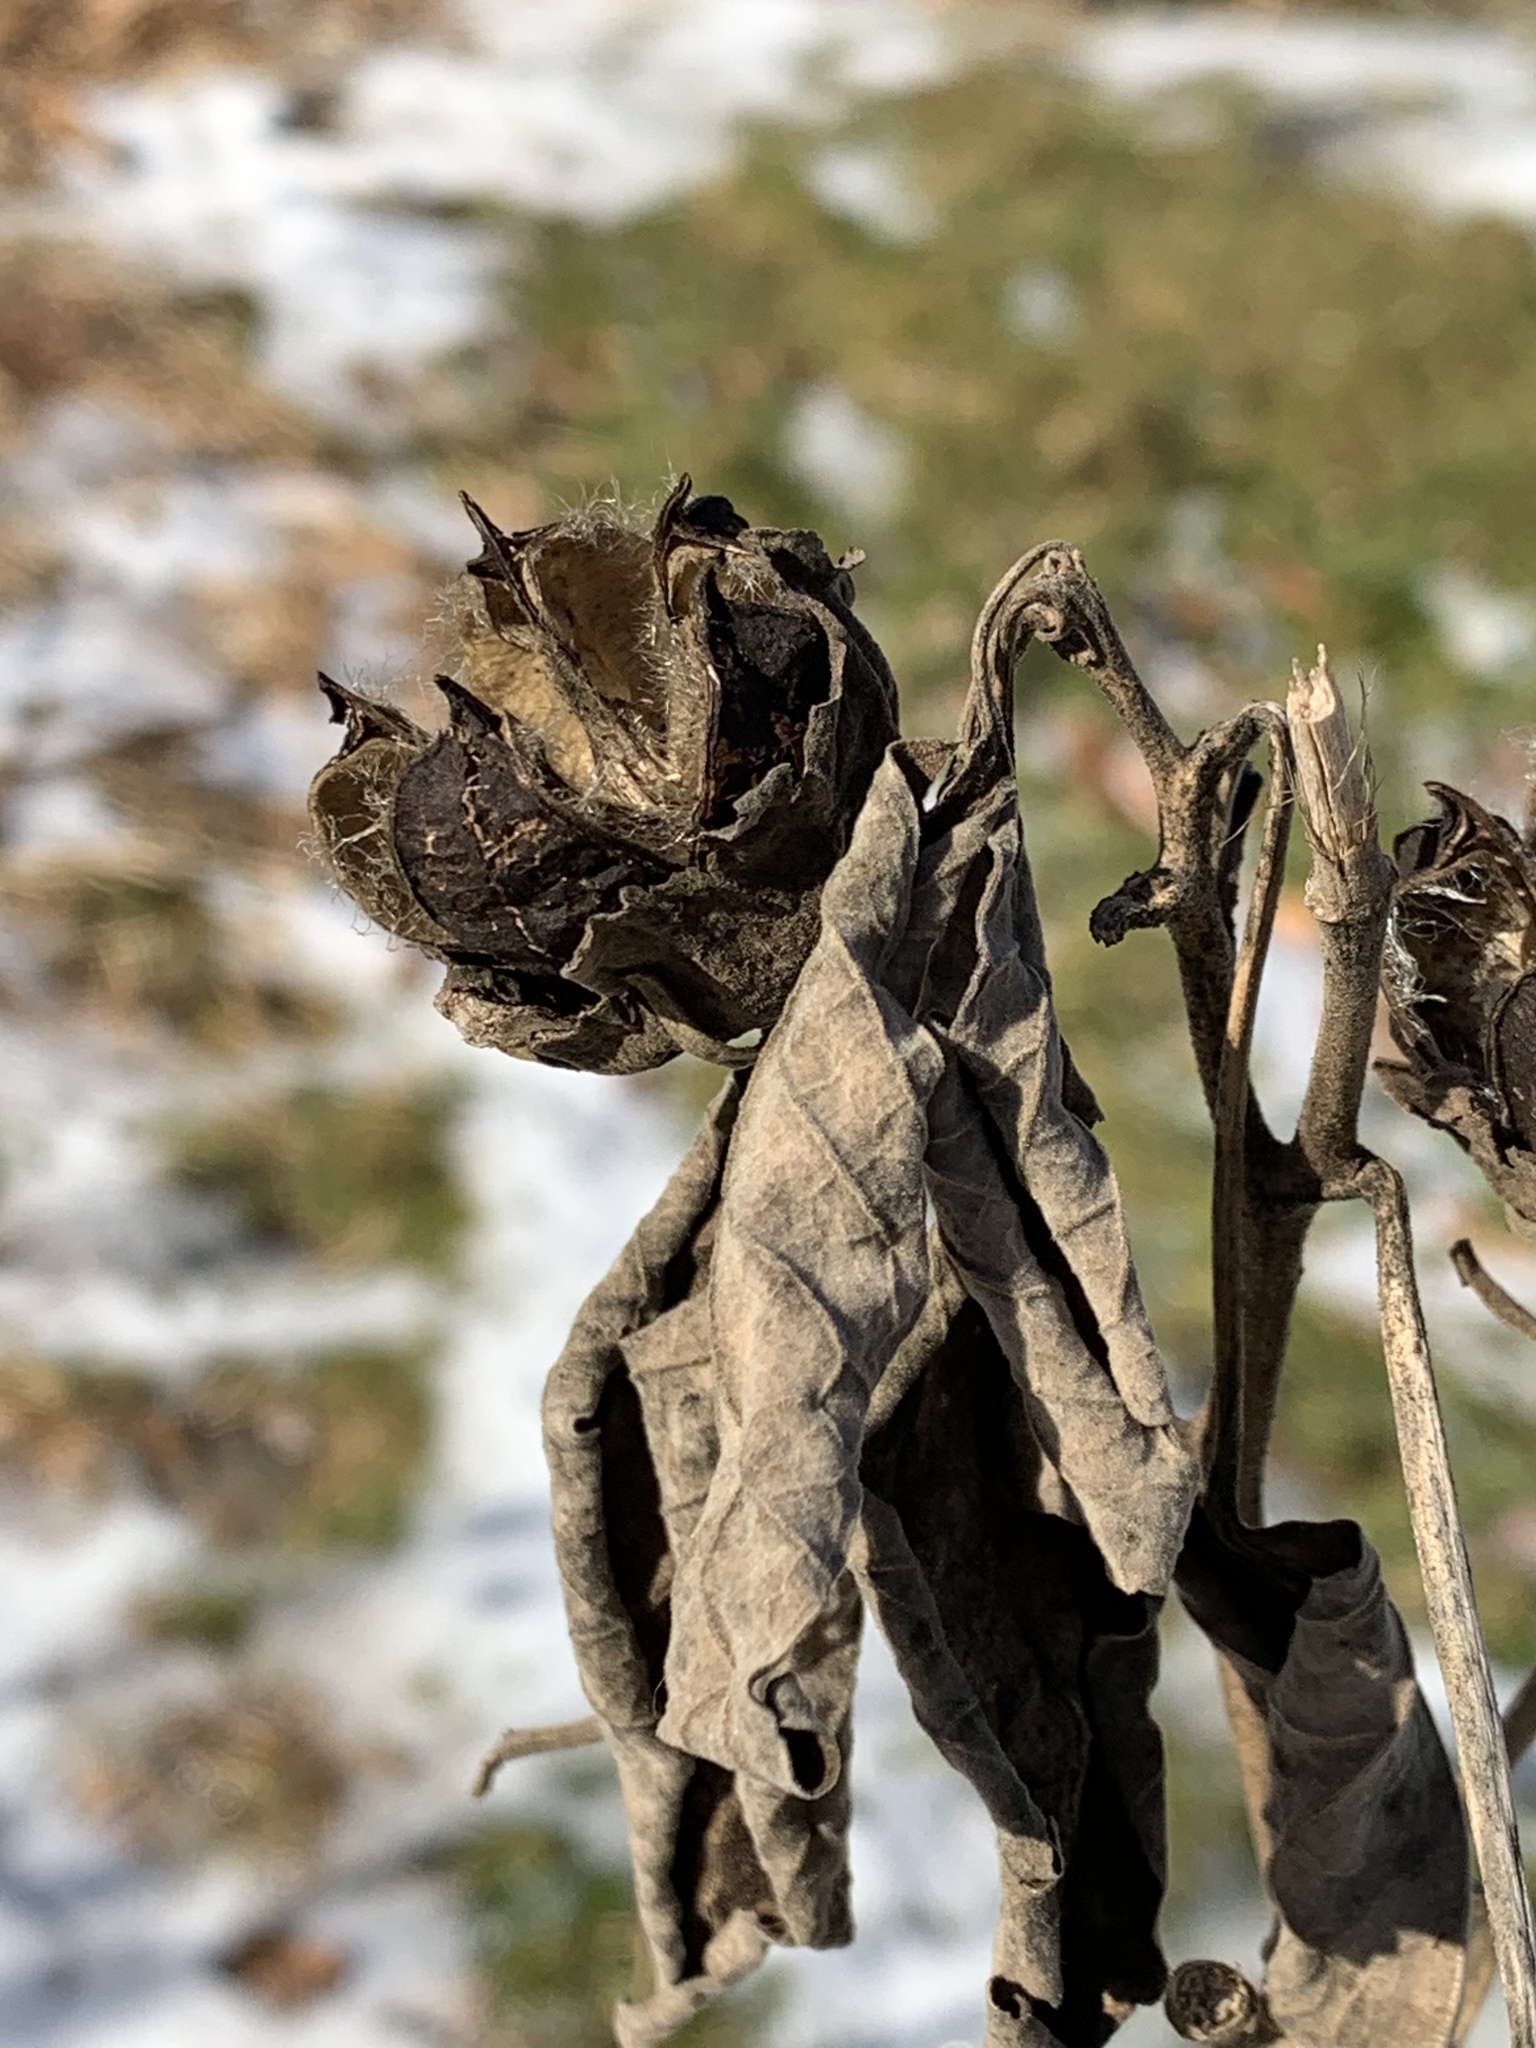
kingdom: Plantae
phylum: Tracheophyta
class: Magnoliopsida
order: Malvales
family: Malvaceae
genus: Hibiscus
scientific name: Hibiscus moscheutos
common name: Common rose-mallow
